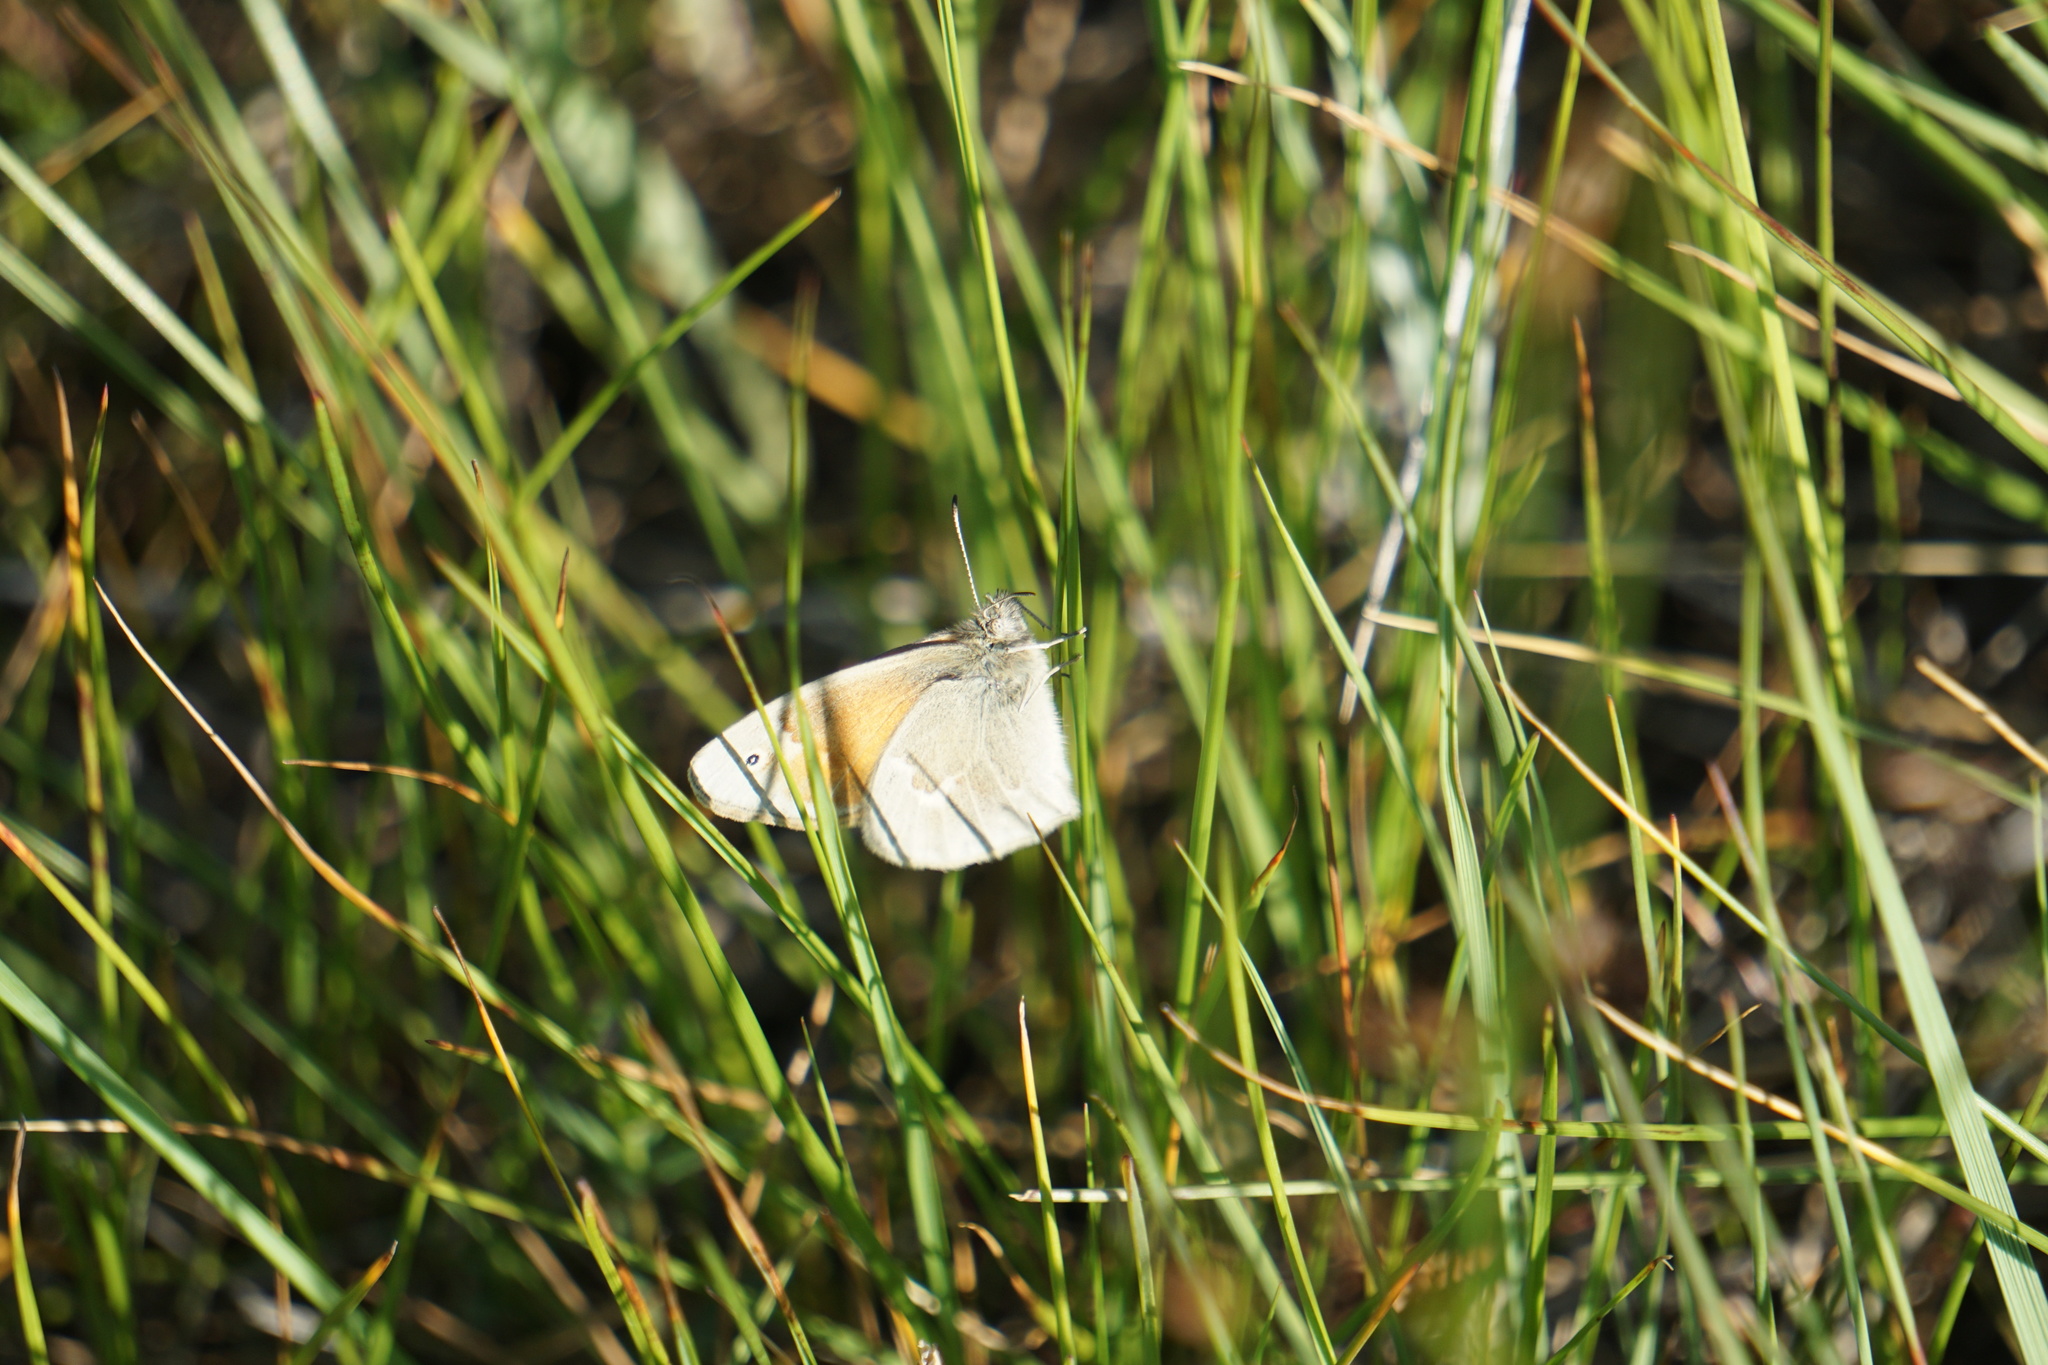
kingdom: Animalia
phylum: Arthropoda
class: Insecta
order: Lepidoptera
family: Nymphalidae
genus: Coenonympha
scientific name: Coenonympha california
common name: Common ringlet
